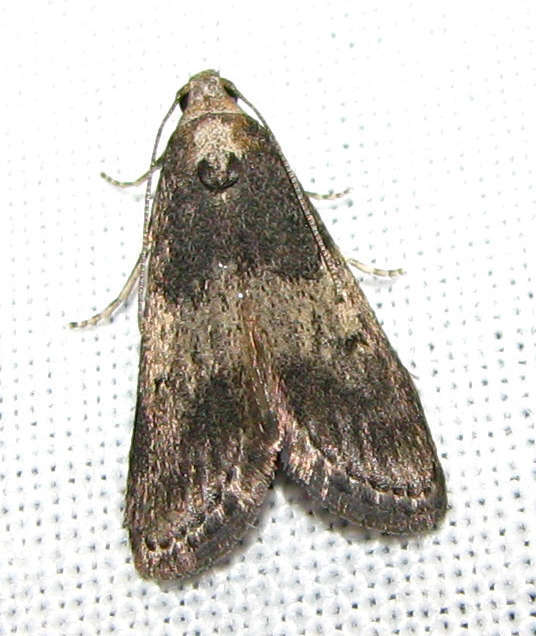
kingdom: Animalia
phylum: Arthropoda
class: Insecta
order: Lepidoptera
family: Pyralidae
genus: Aphomia
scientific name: Aphomia baryptera
